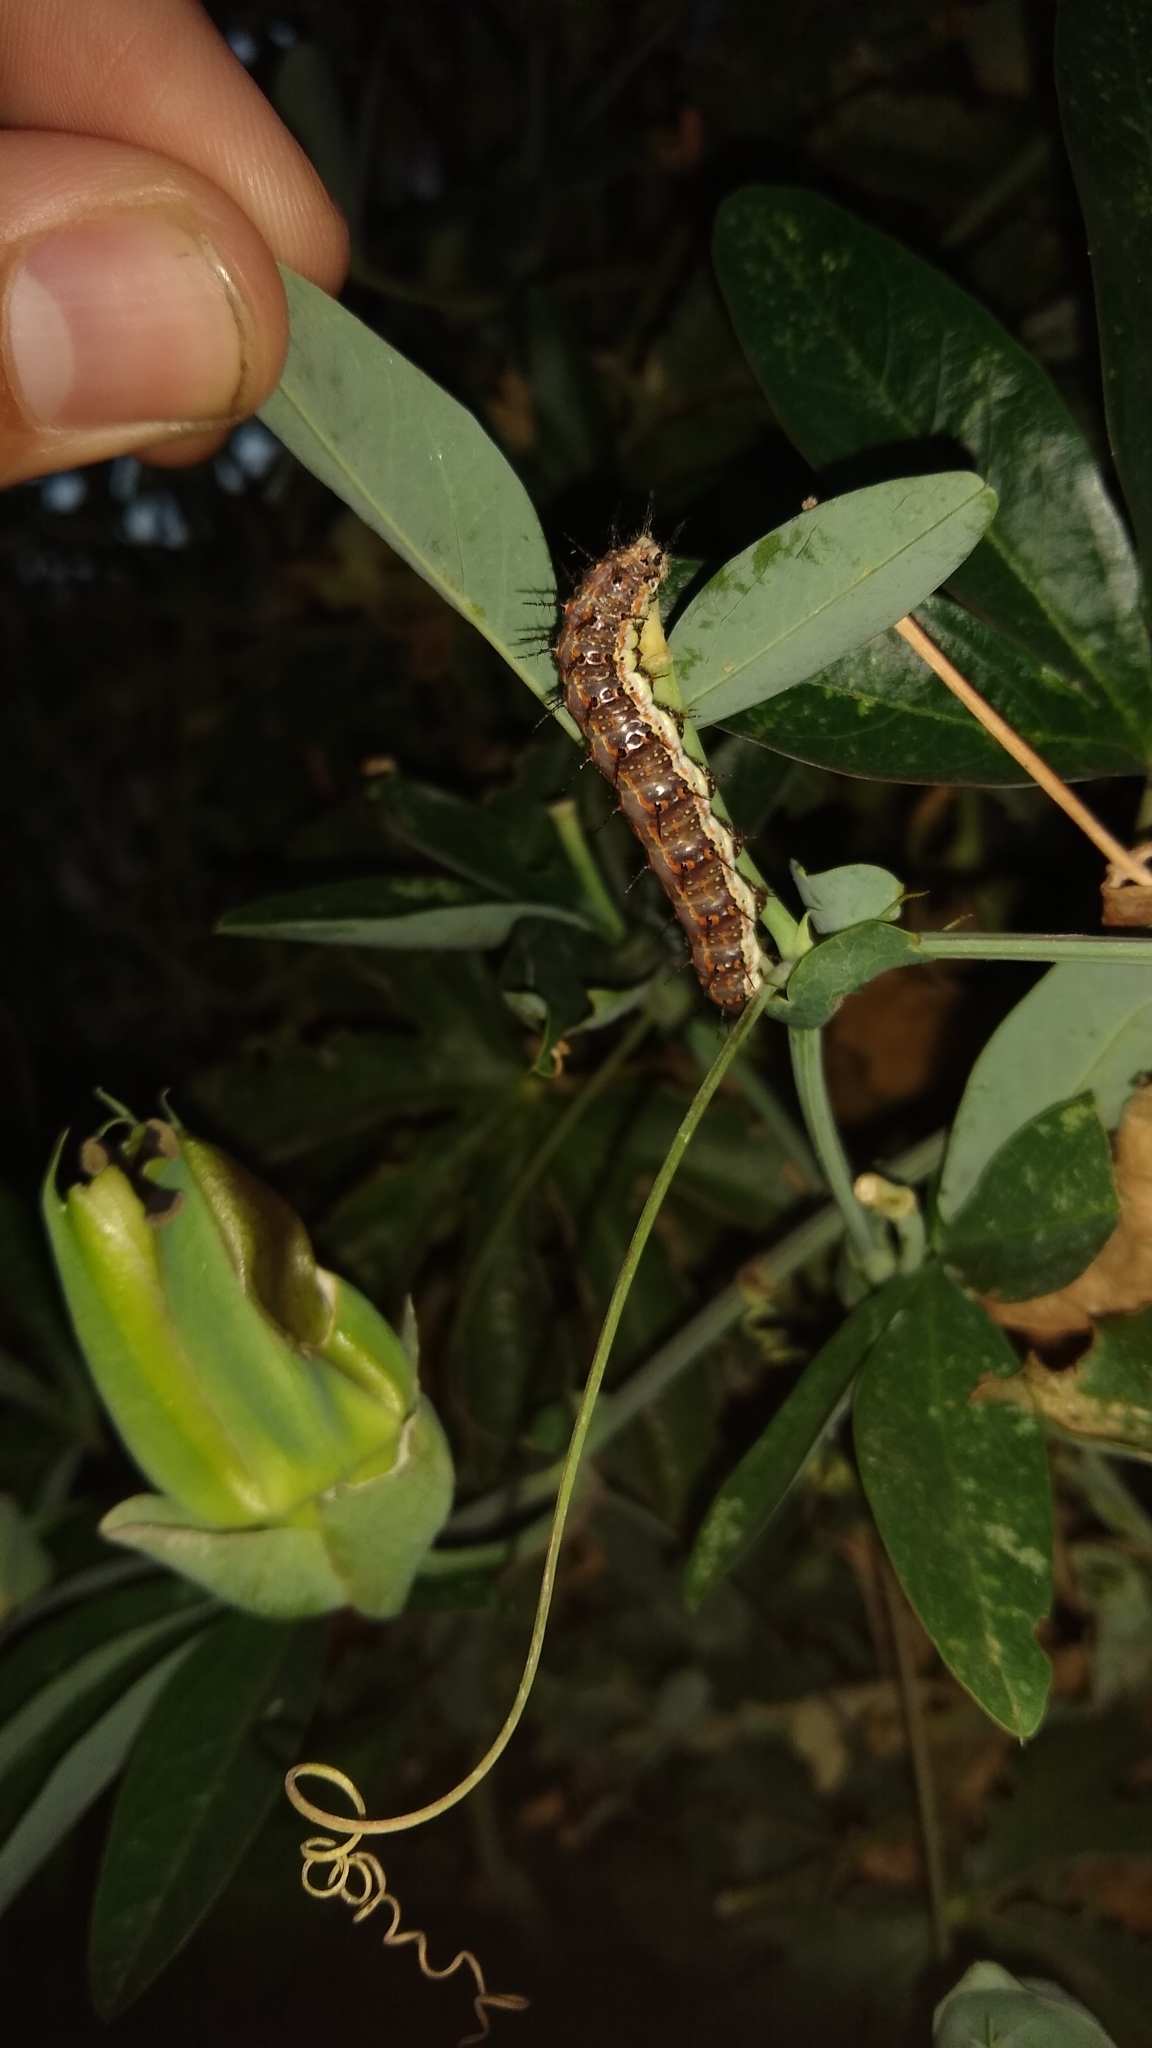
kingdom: Animalia
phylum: Arthropoda
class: Insecta
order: Lepidoptera
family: Nymphalidae
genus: Dione
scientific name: Dione vanillae
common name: Gulf fritillary
